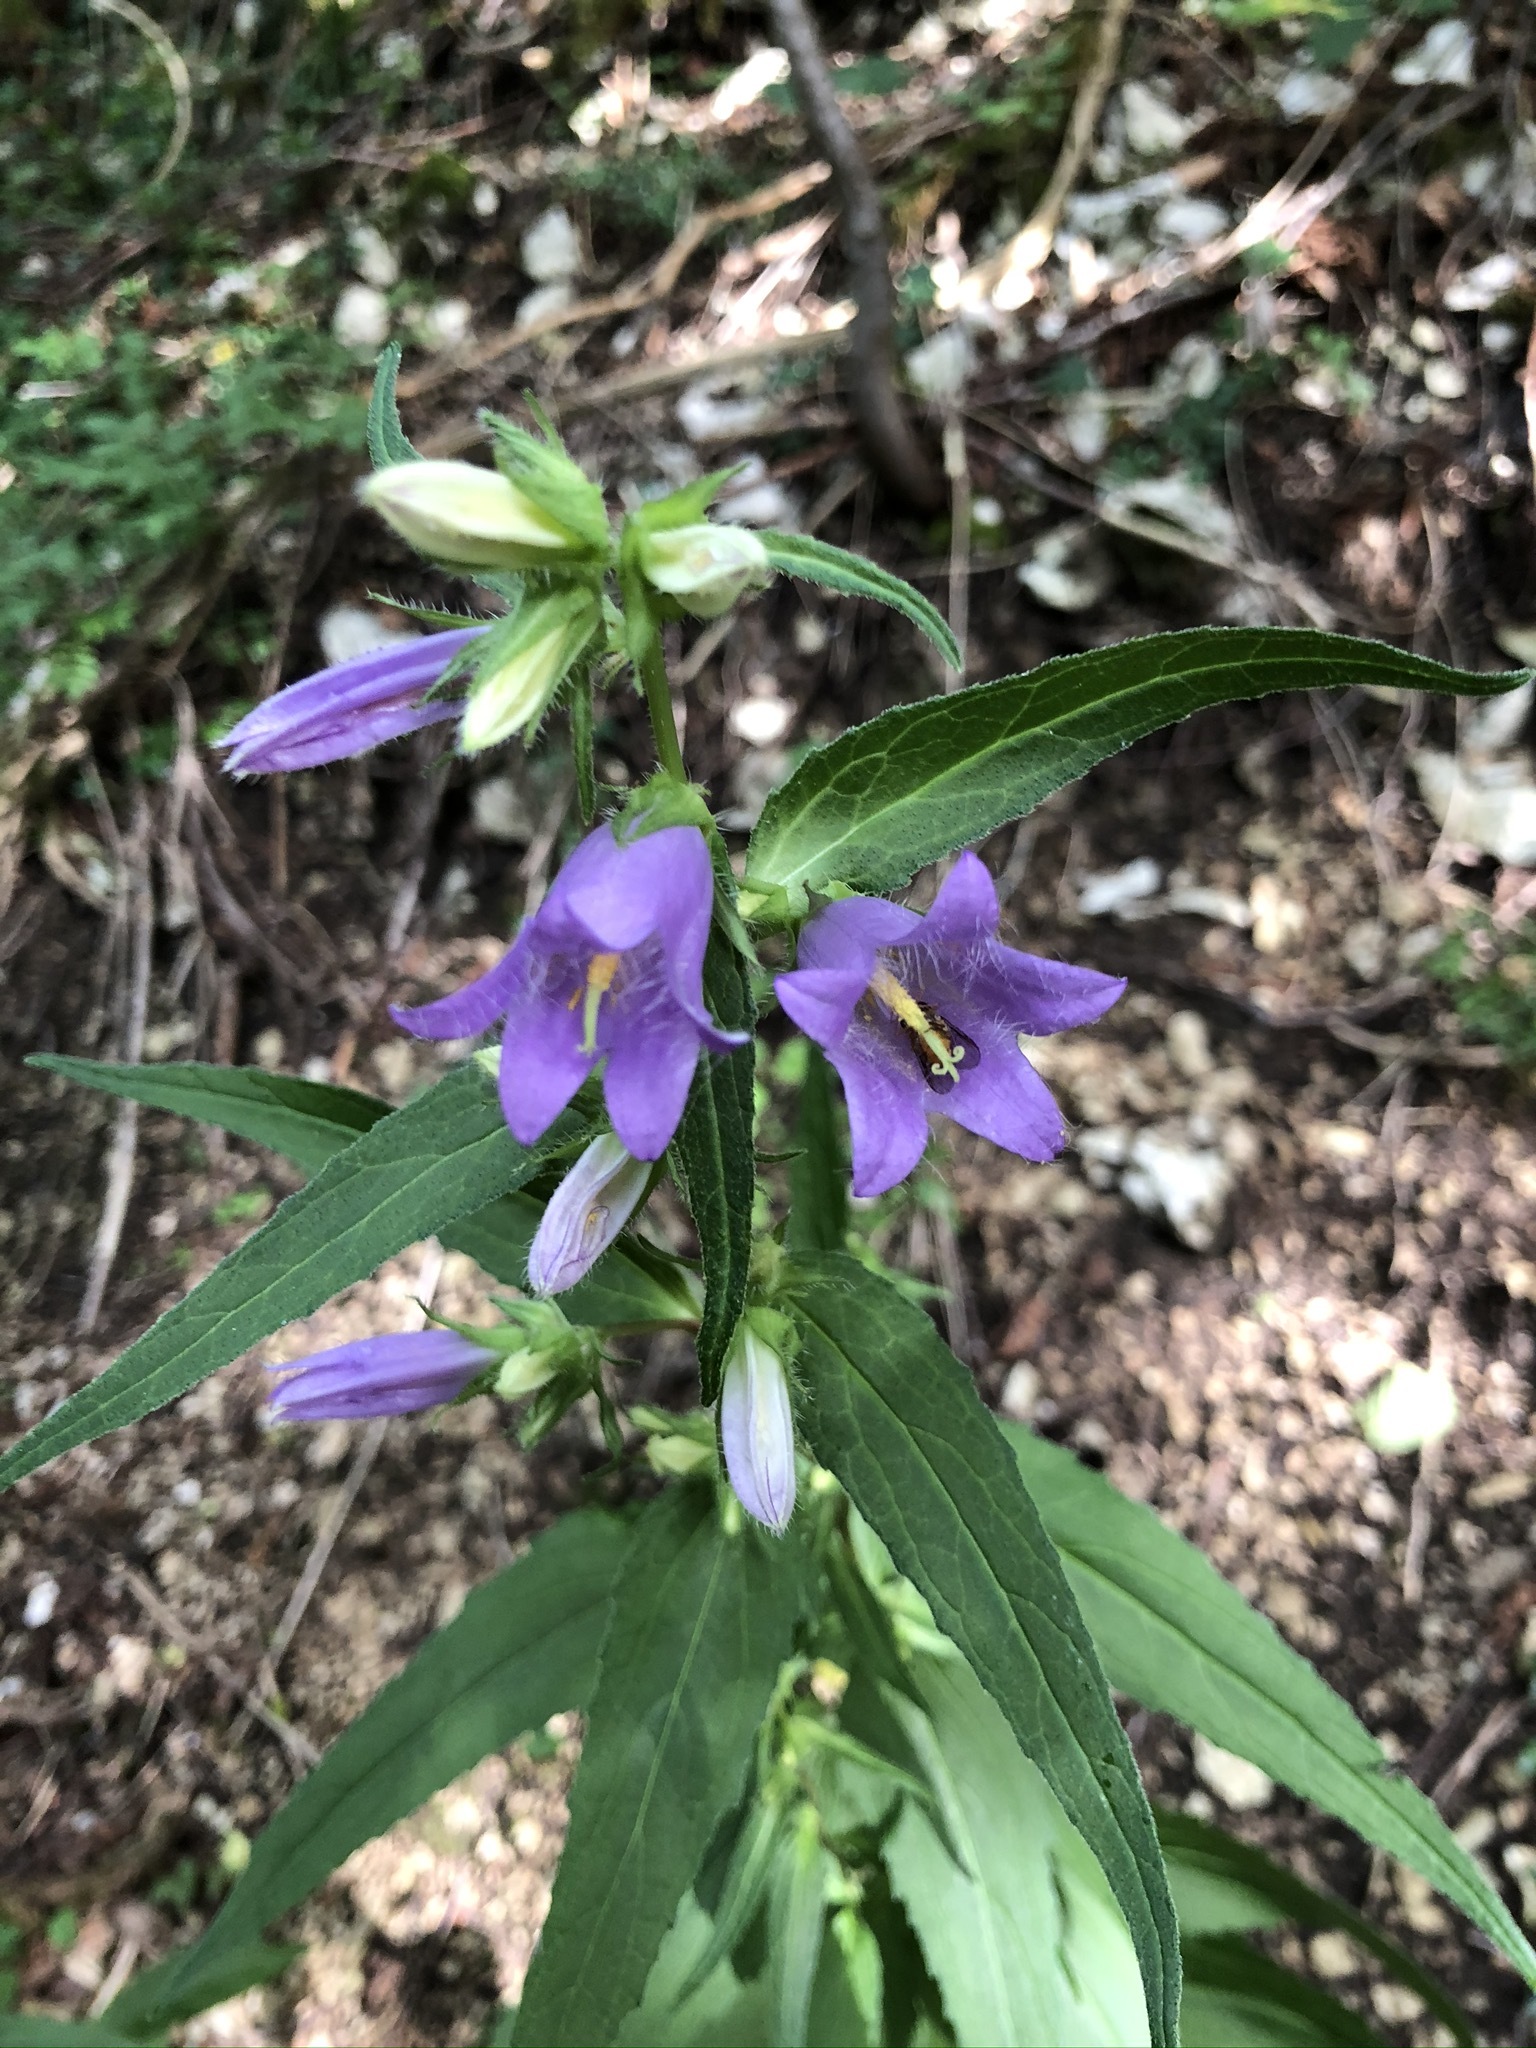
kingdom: Plantae
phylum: Tracheophyta
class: Magnoliopsida
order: Asterales
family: Campanulaceae
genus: Campanula
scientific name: Campanula trachelium
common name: Nettle-leaved bellflower
